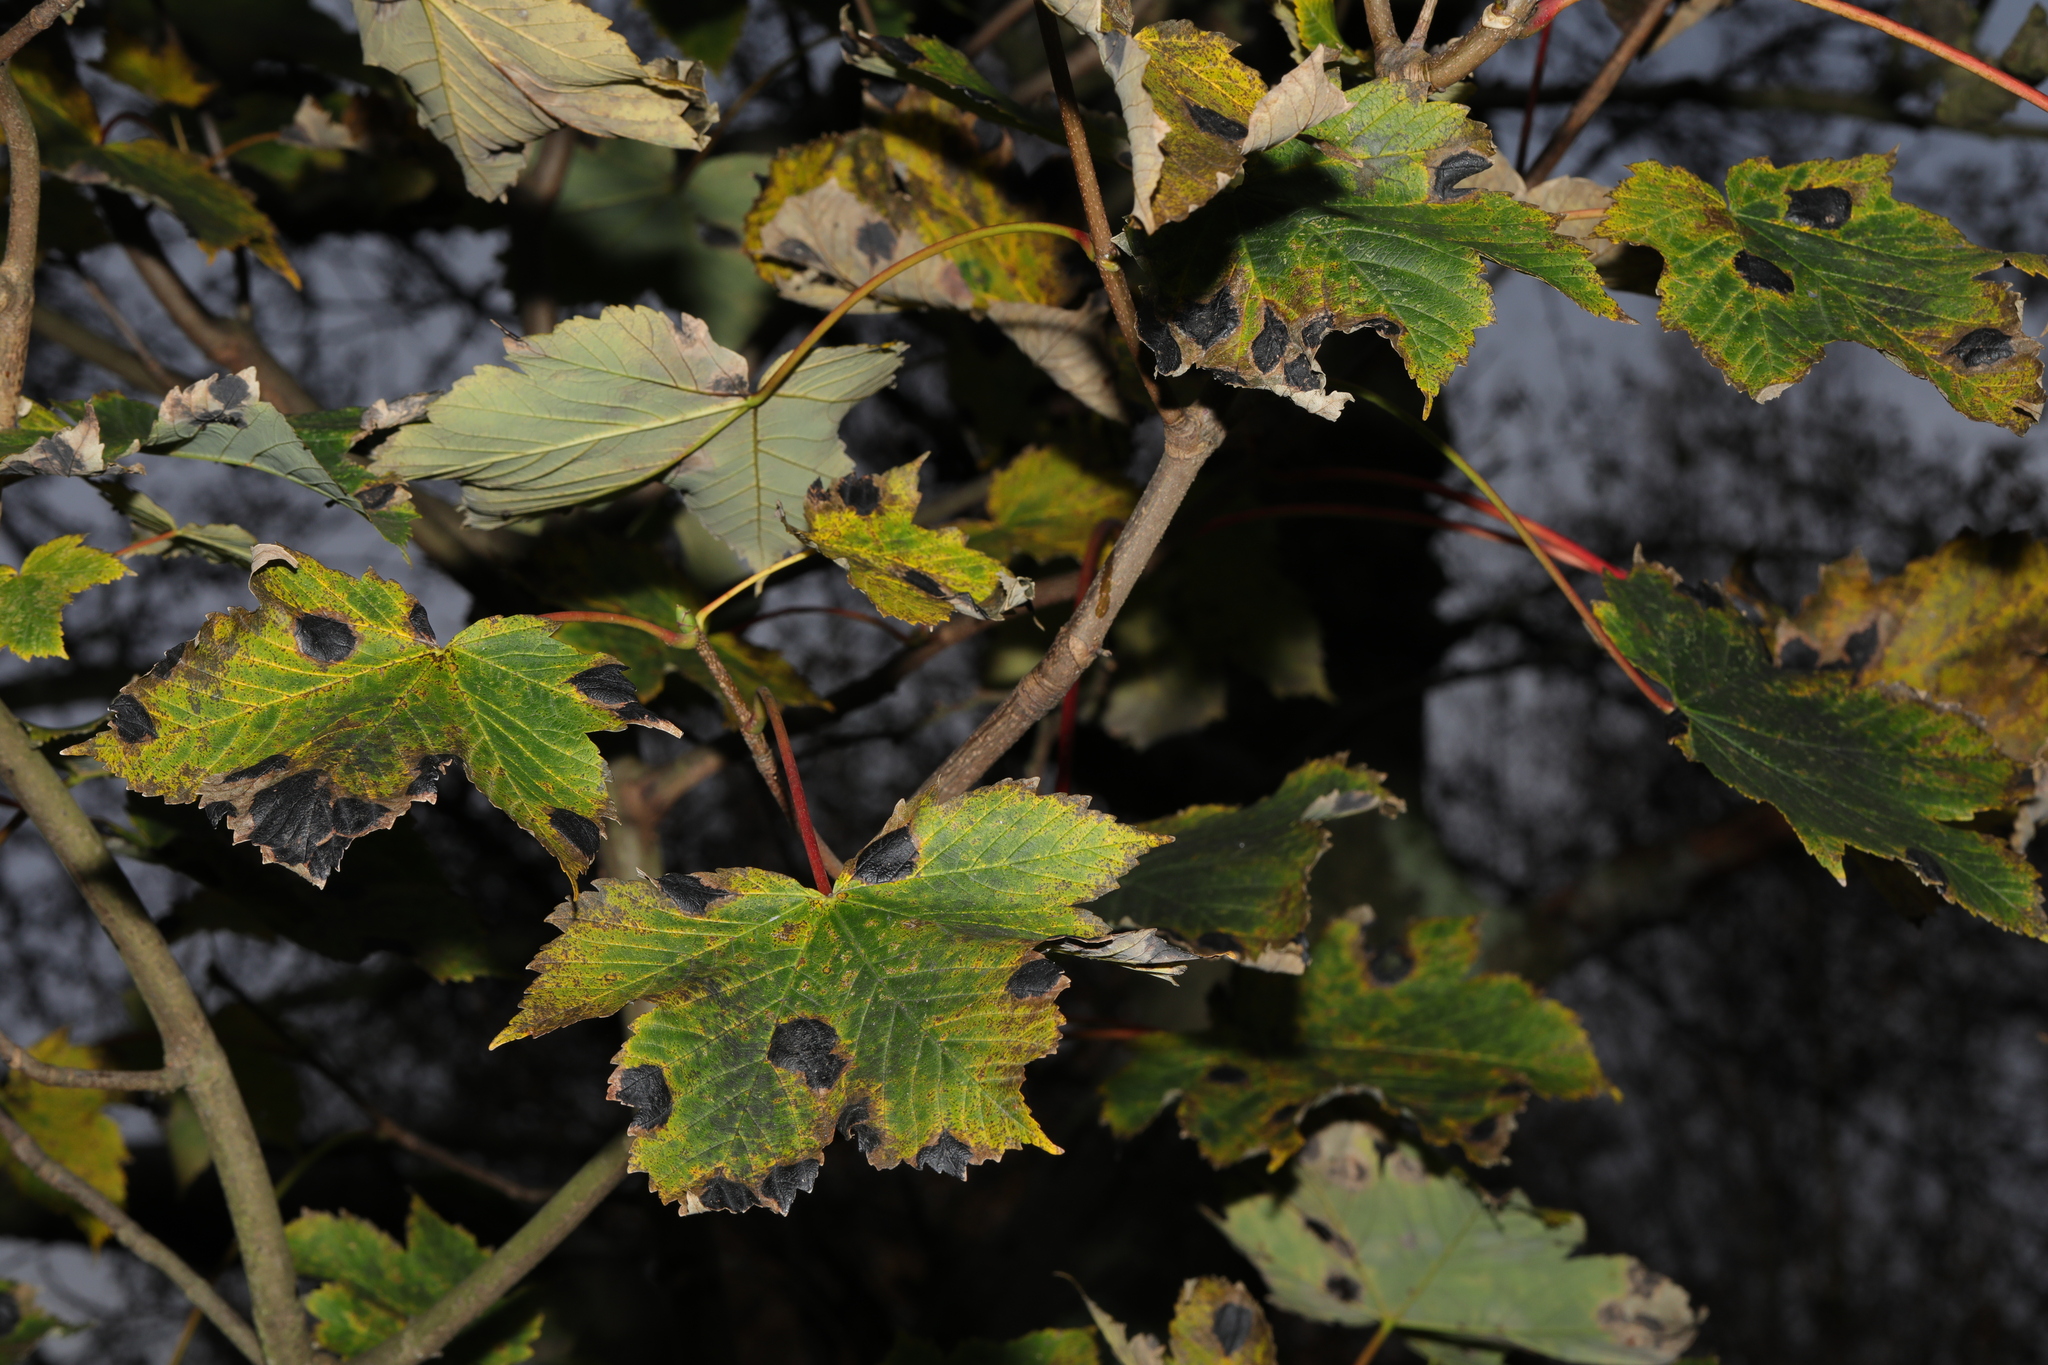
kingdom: Fungi
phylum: Ascomycota
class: Leotiomycetes
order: Rhytismatales
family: Rhytismataceae
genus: Rhytisma
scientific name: Rhytisma acerinum
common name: European tar spot
